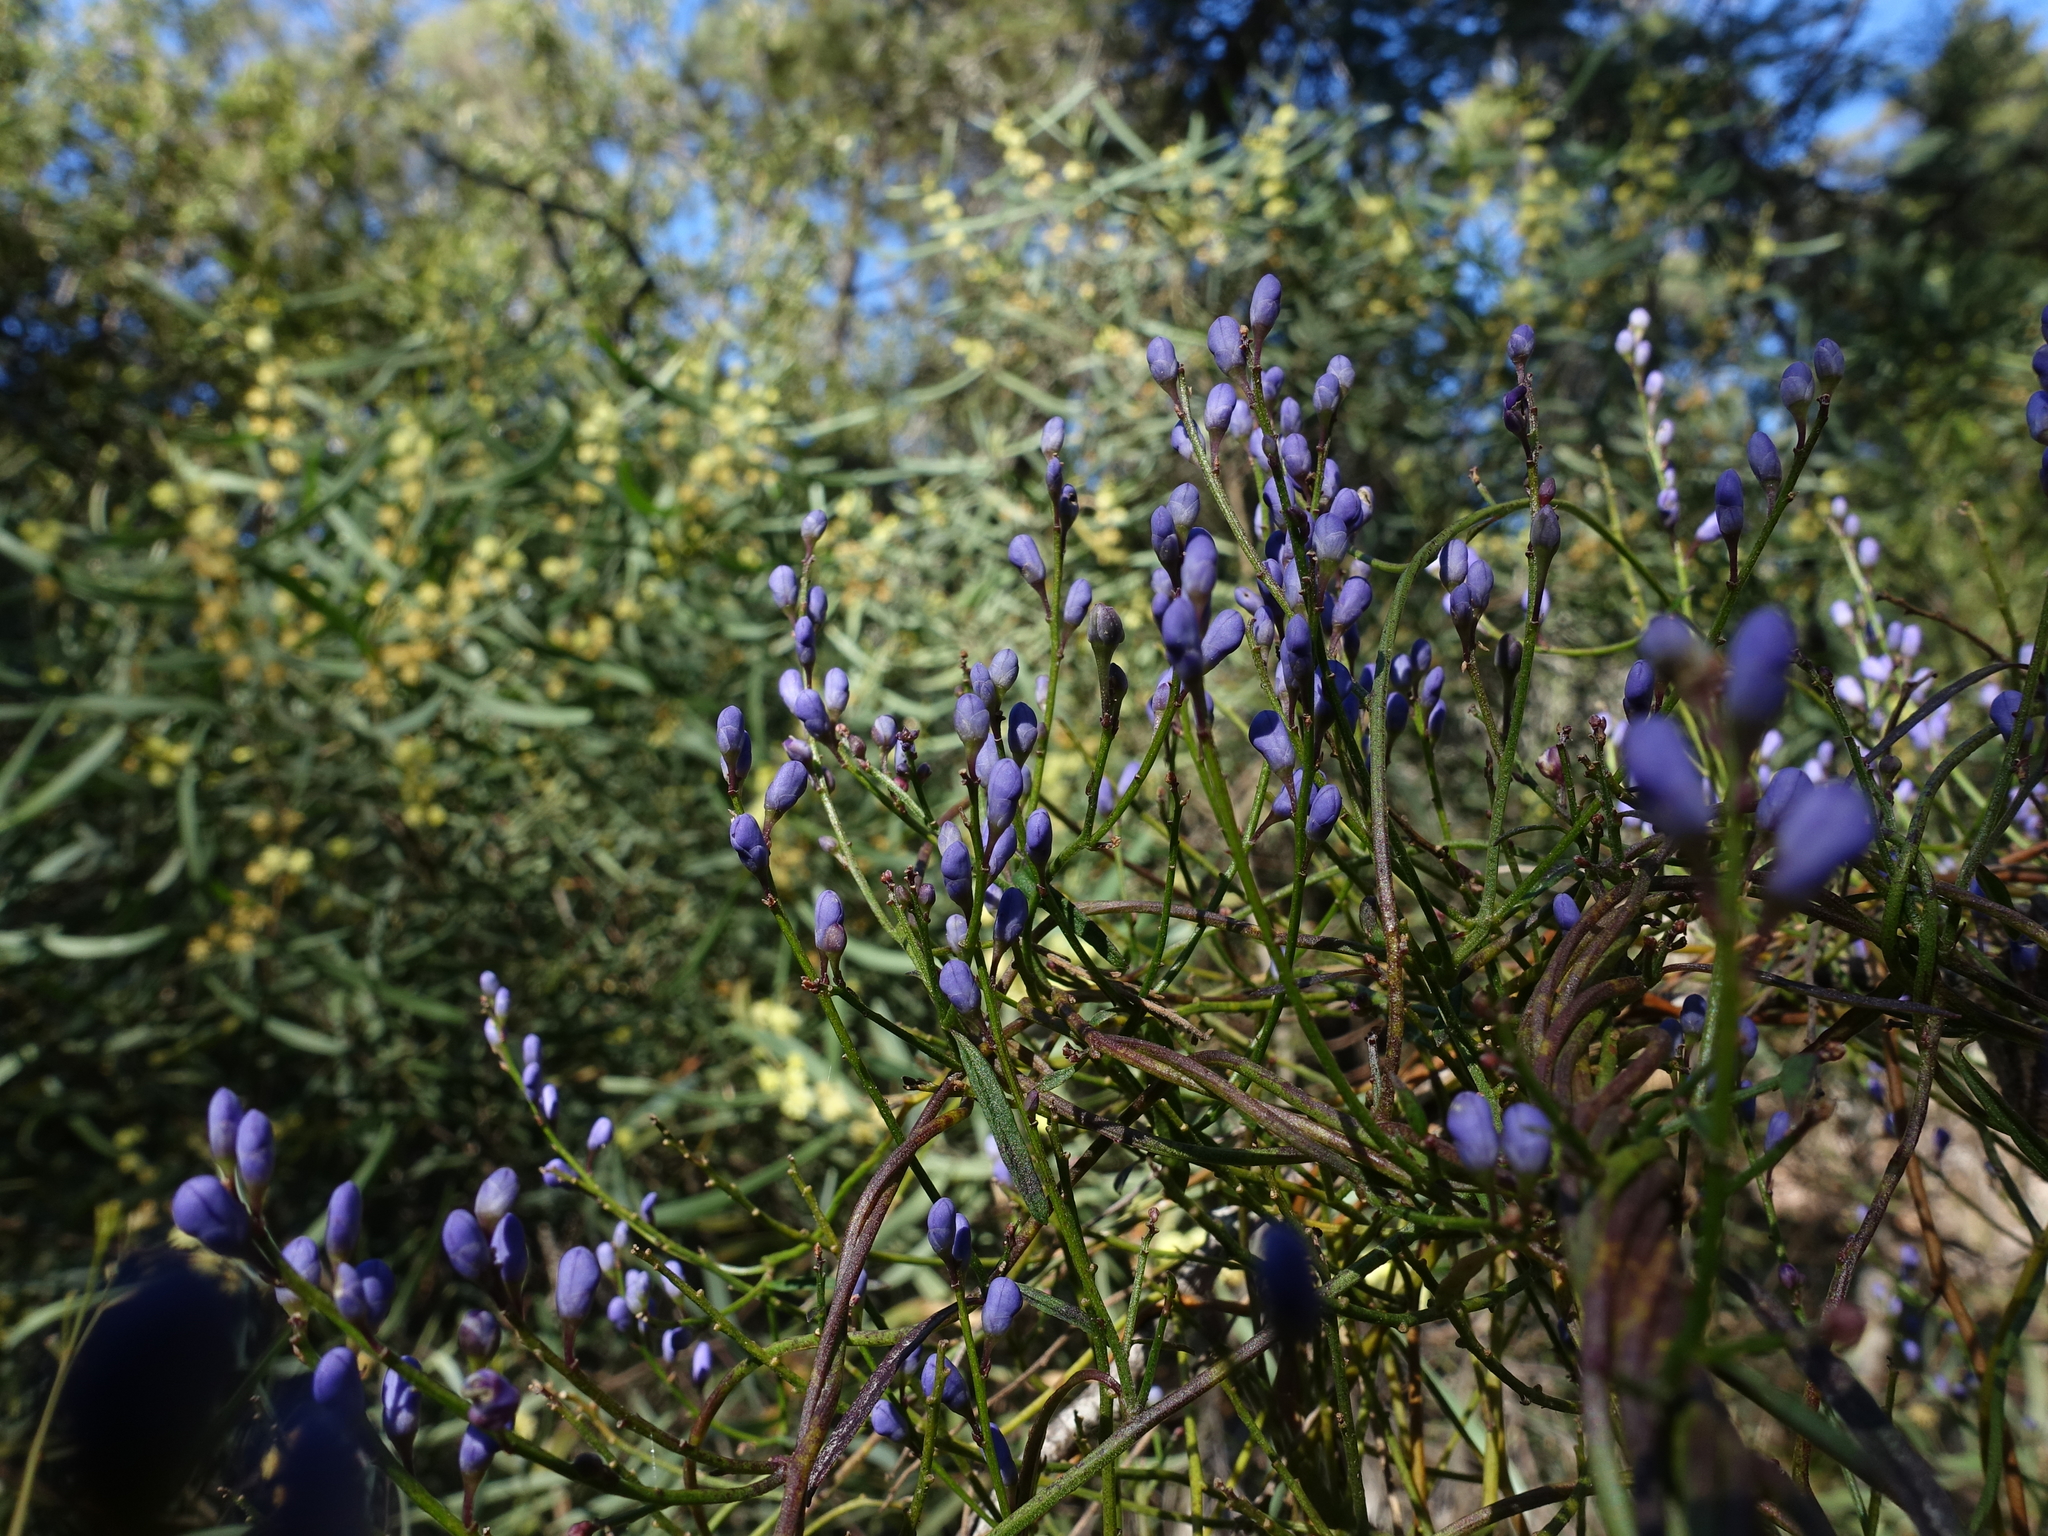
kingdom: Plantae
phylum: Tracheophyta
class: Magnoliopsida
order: Fabales
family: Polygalaceae
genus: Comesperma
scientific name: Comesperma volubile
